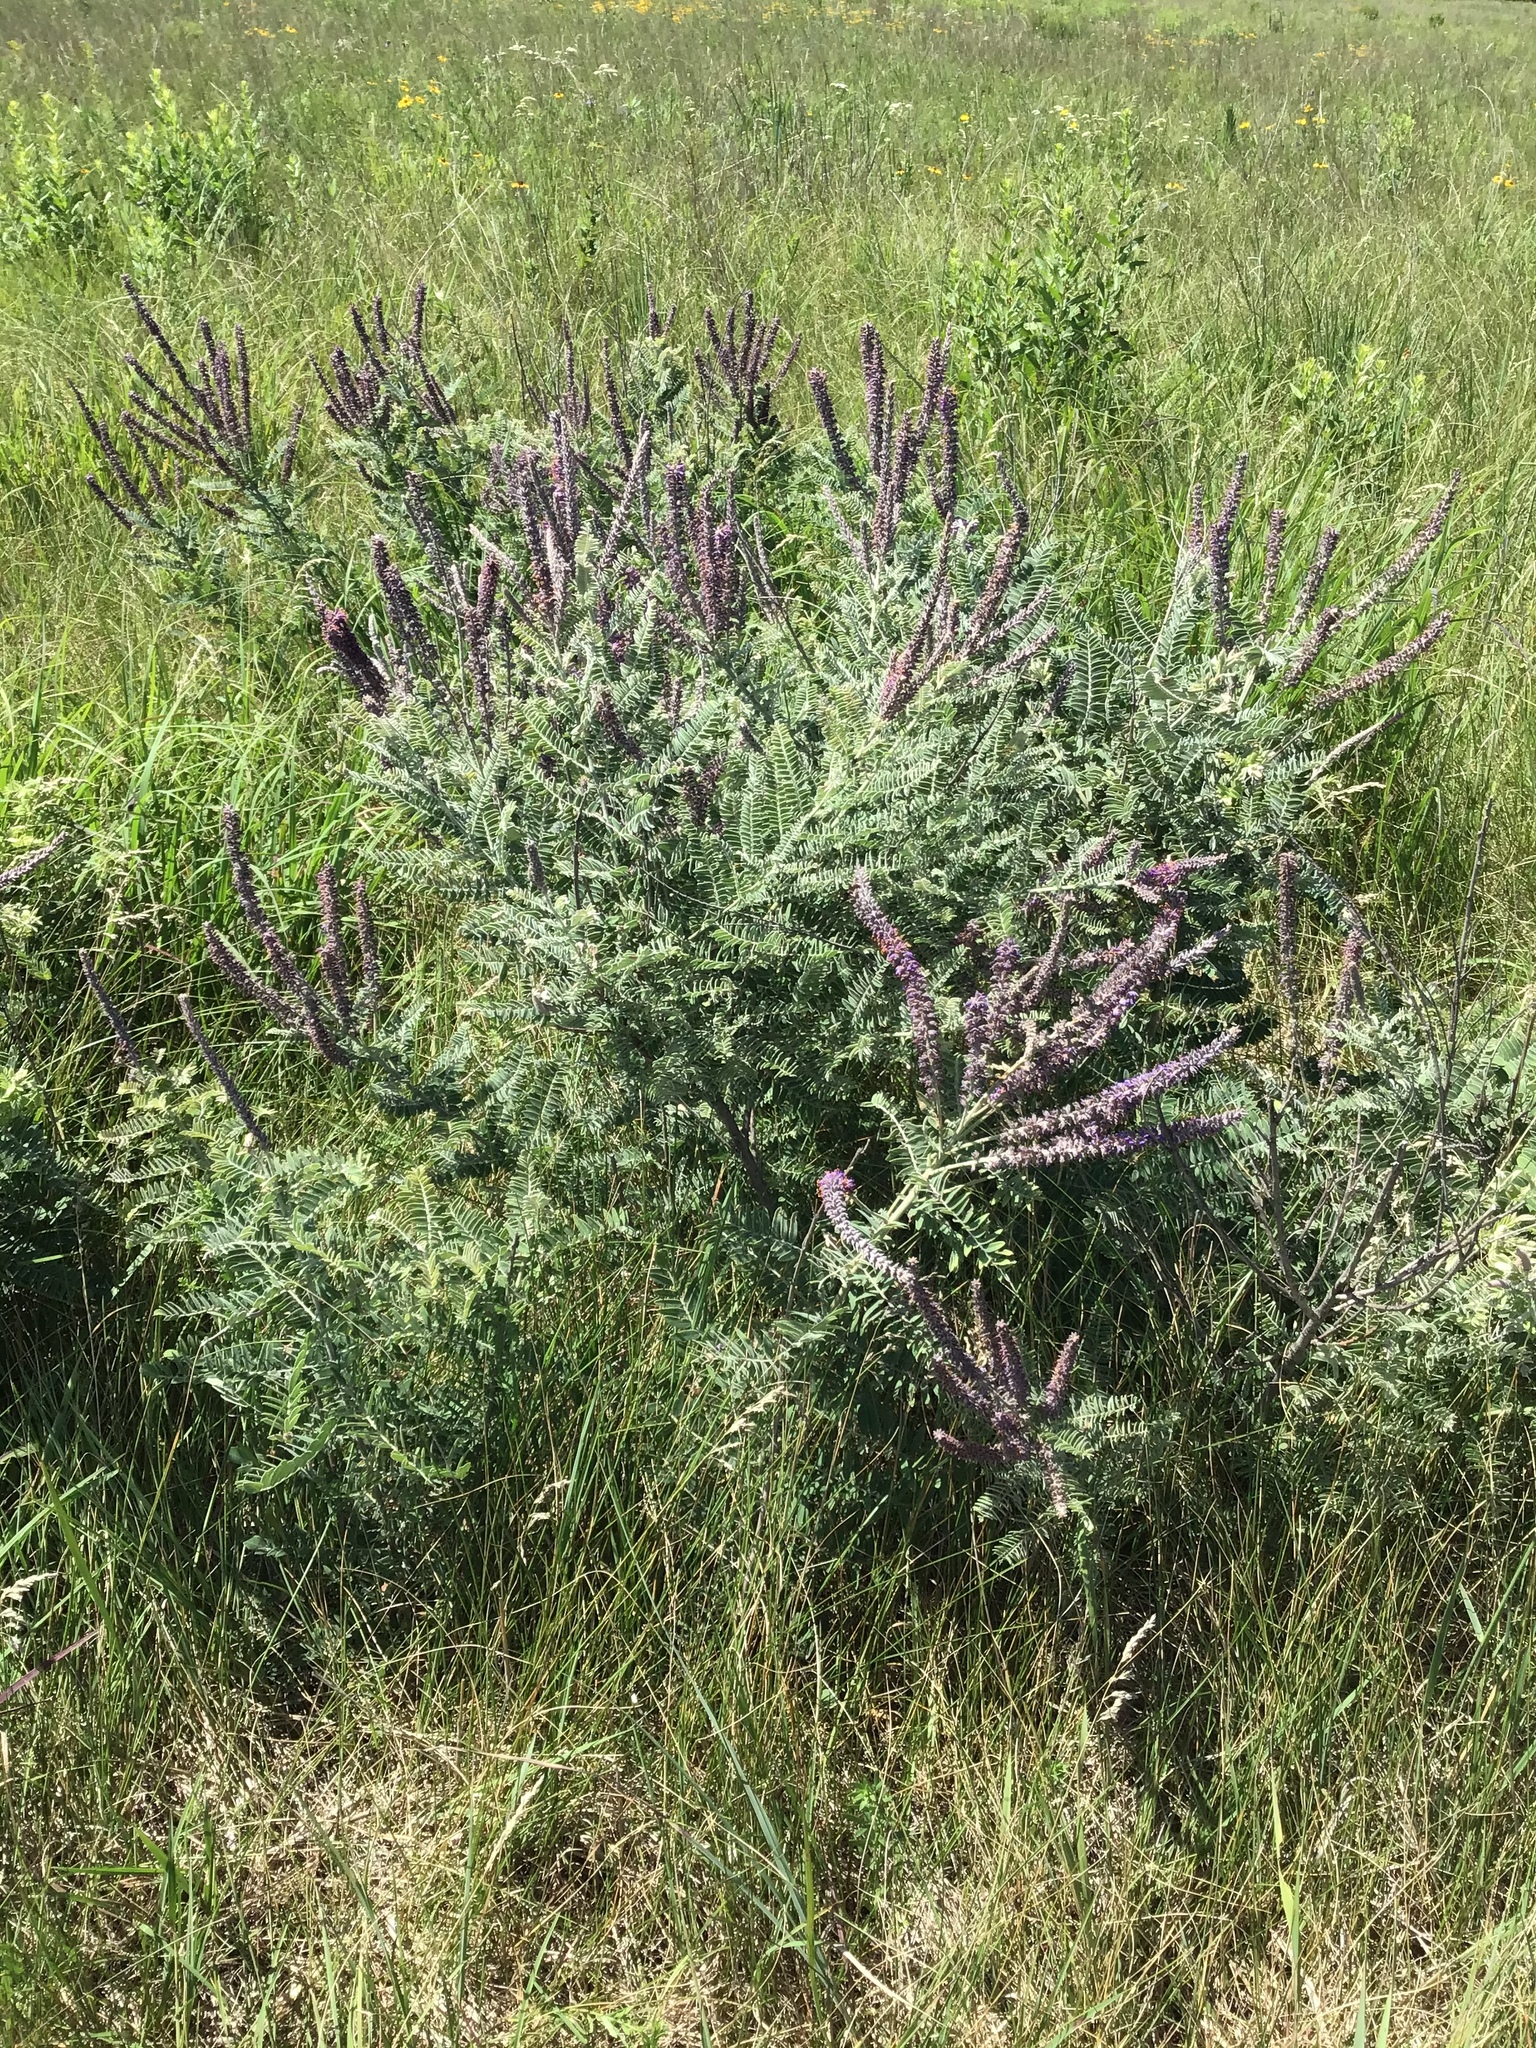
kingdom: Plantae
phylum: Tracheophyta
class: Magnoliopsida
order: Fabales
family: Fabaceae
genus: Amorpha
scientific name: Amorpha canescens
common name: Leadplant
